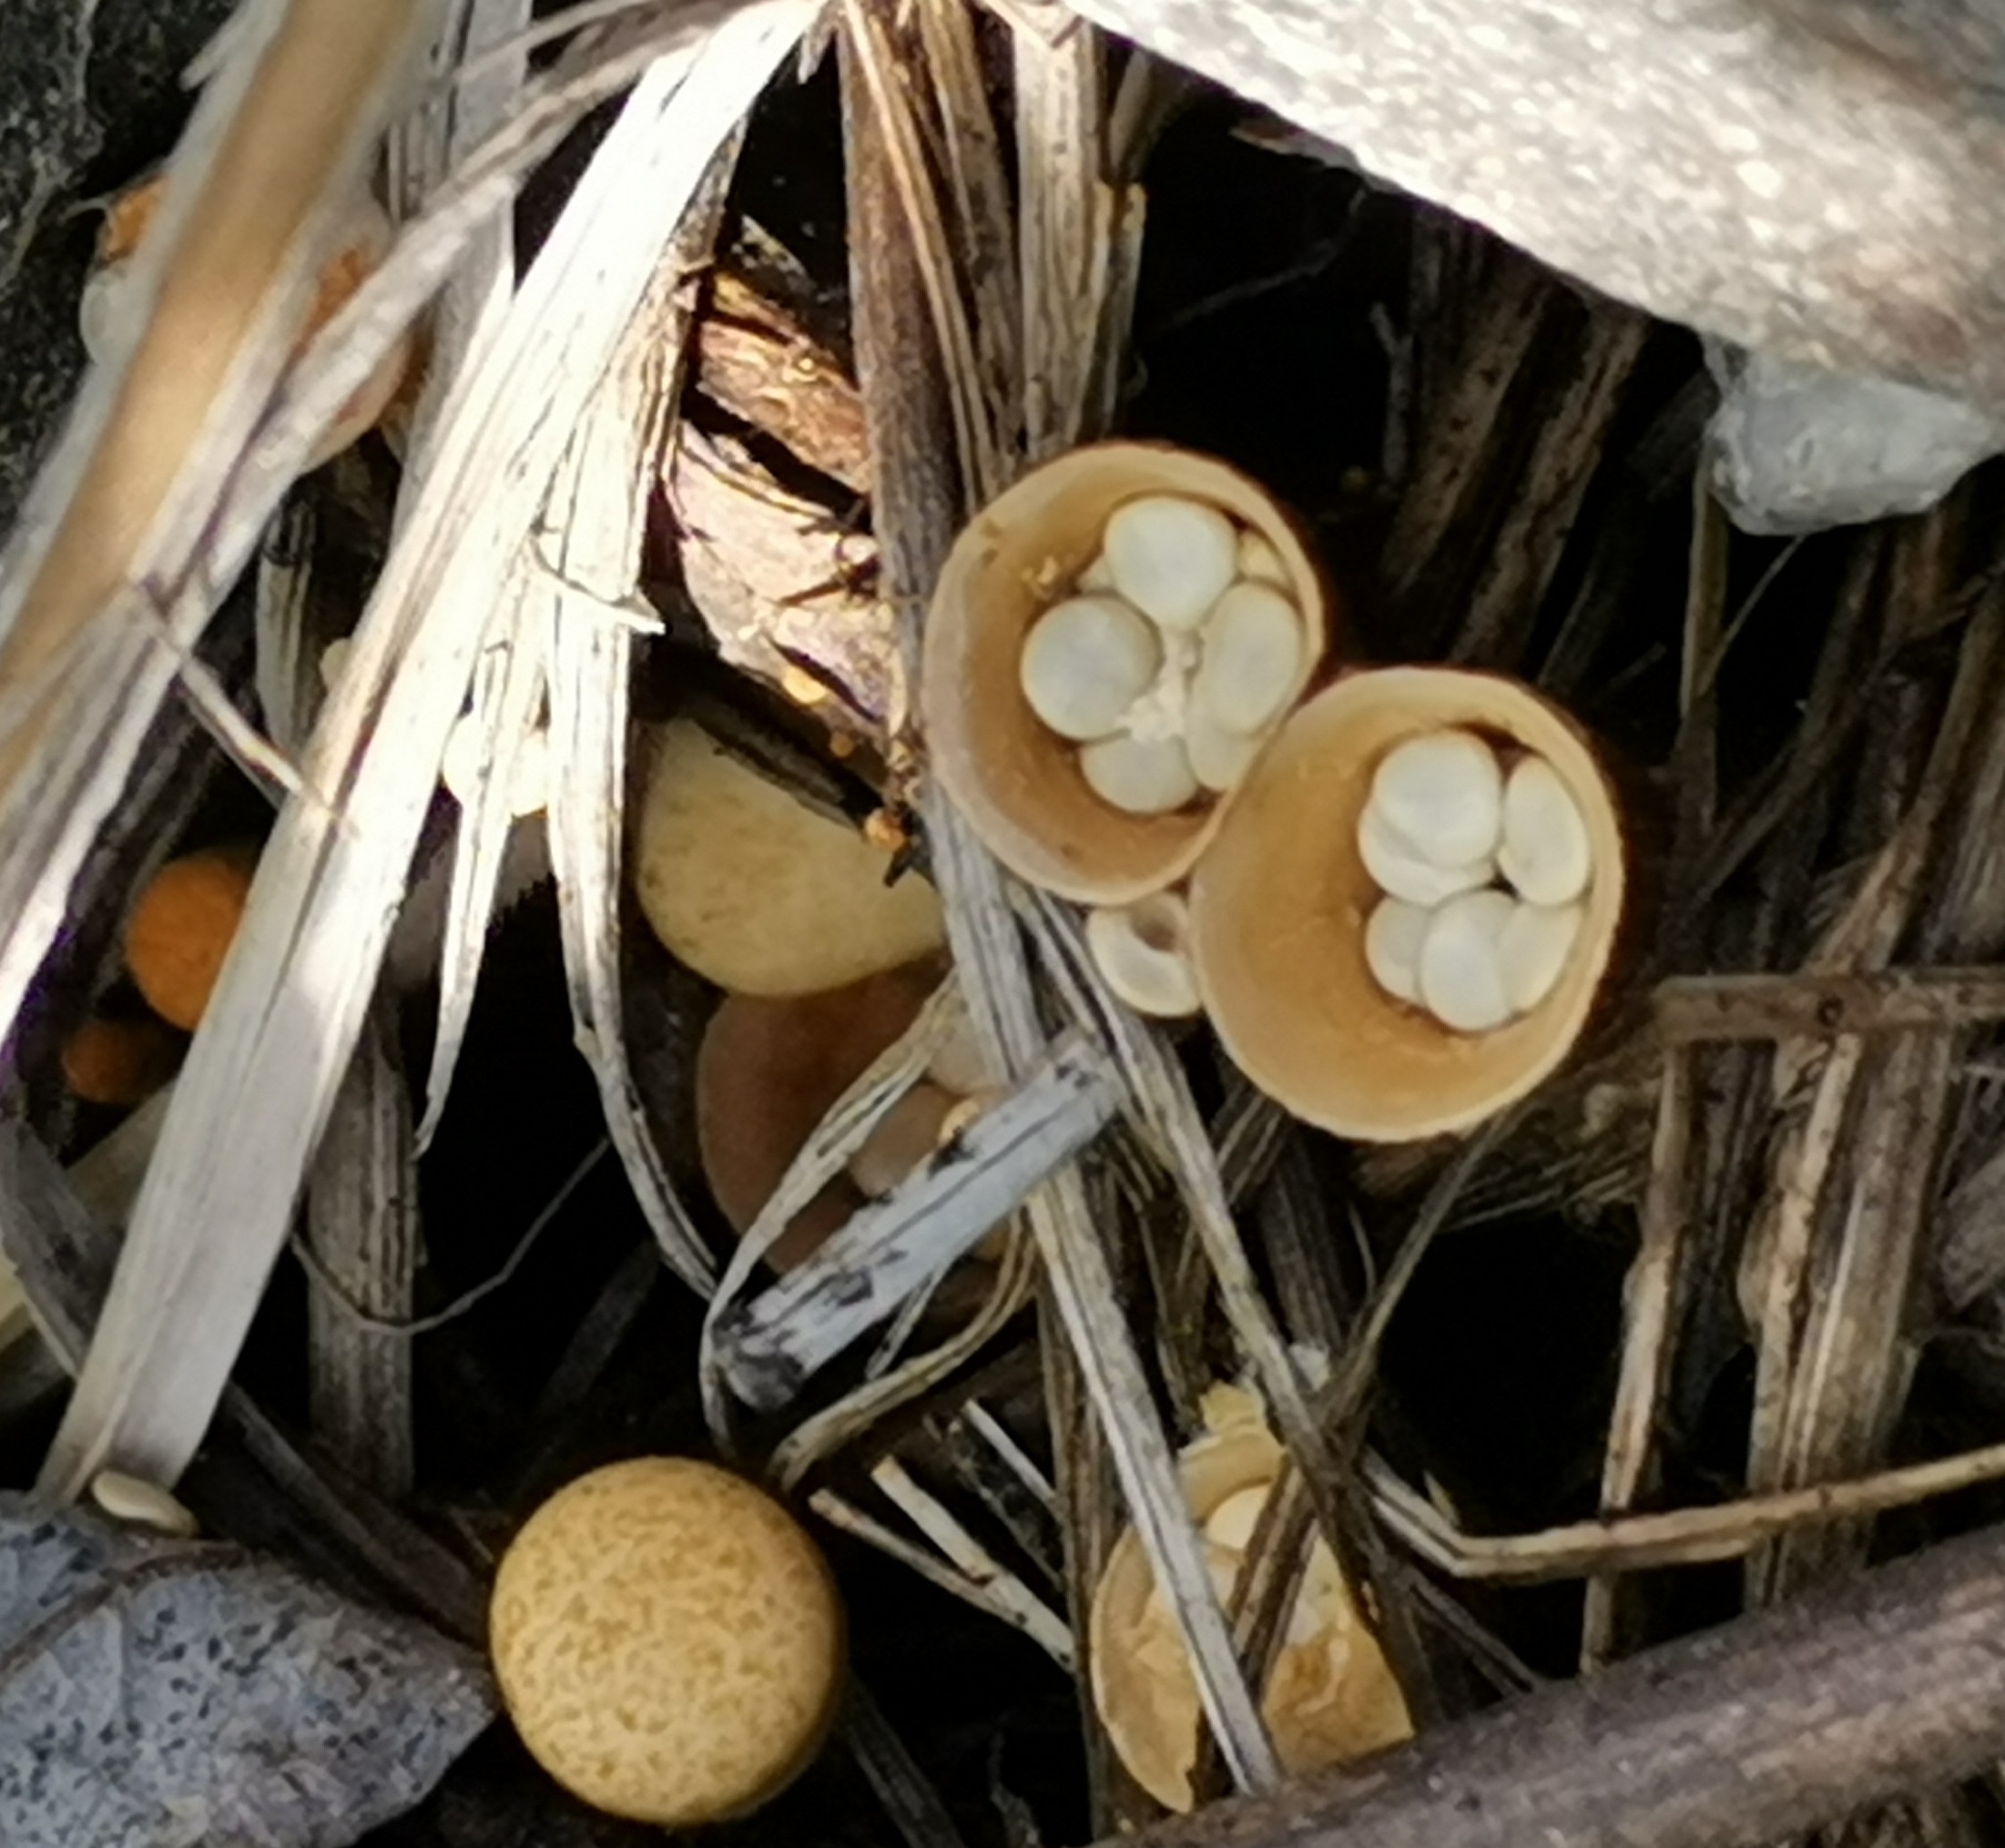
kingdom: Fungi
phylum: Basidiomycota
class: Agaricomycetes
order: Agaricales
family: Nidulariaceae
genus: Crucibulum
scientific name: Crucibulum laeve
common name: Common bird's nest
